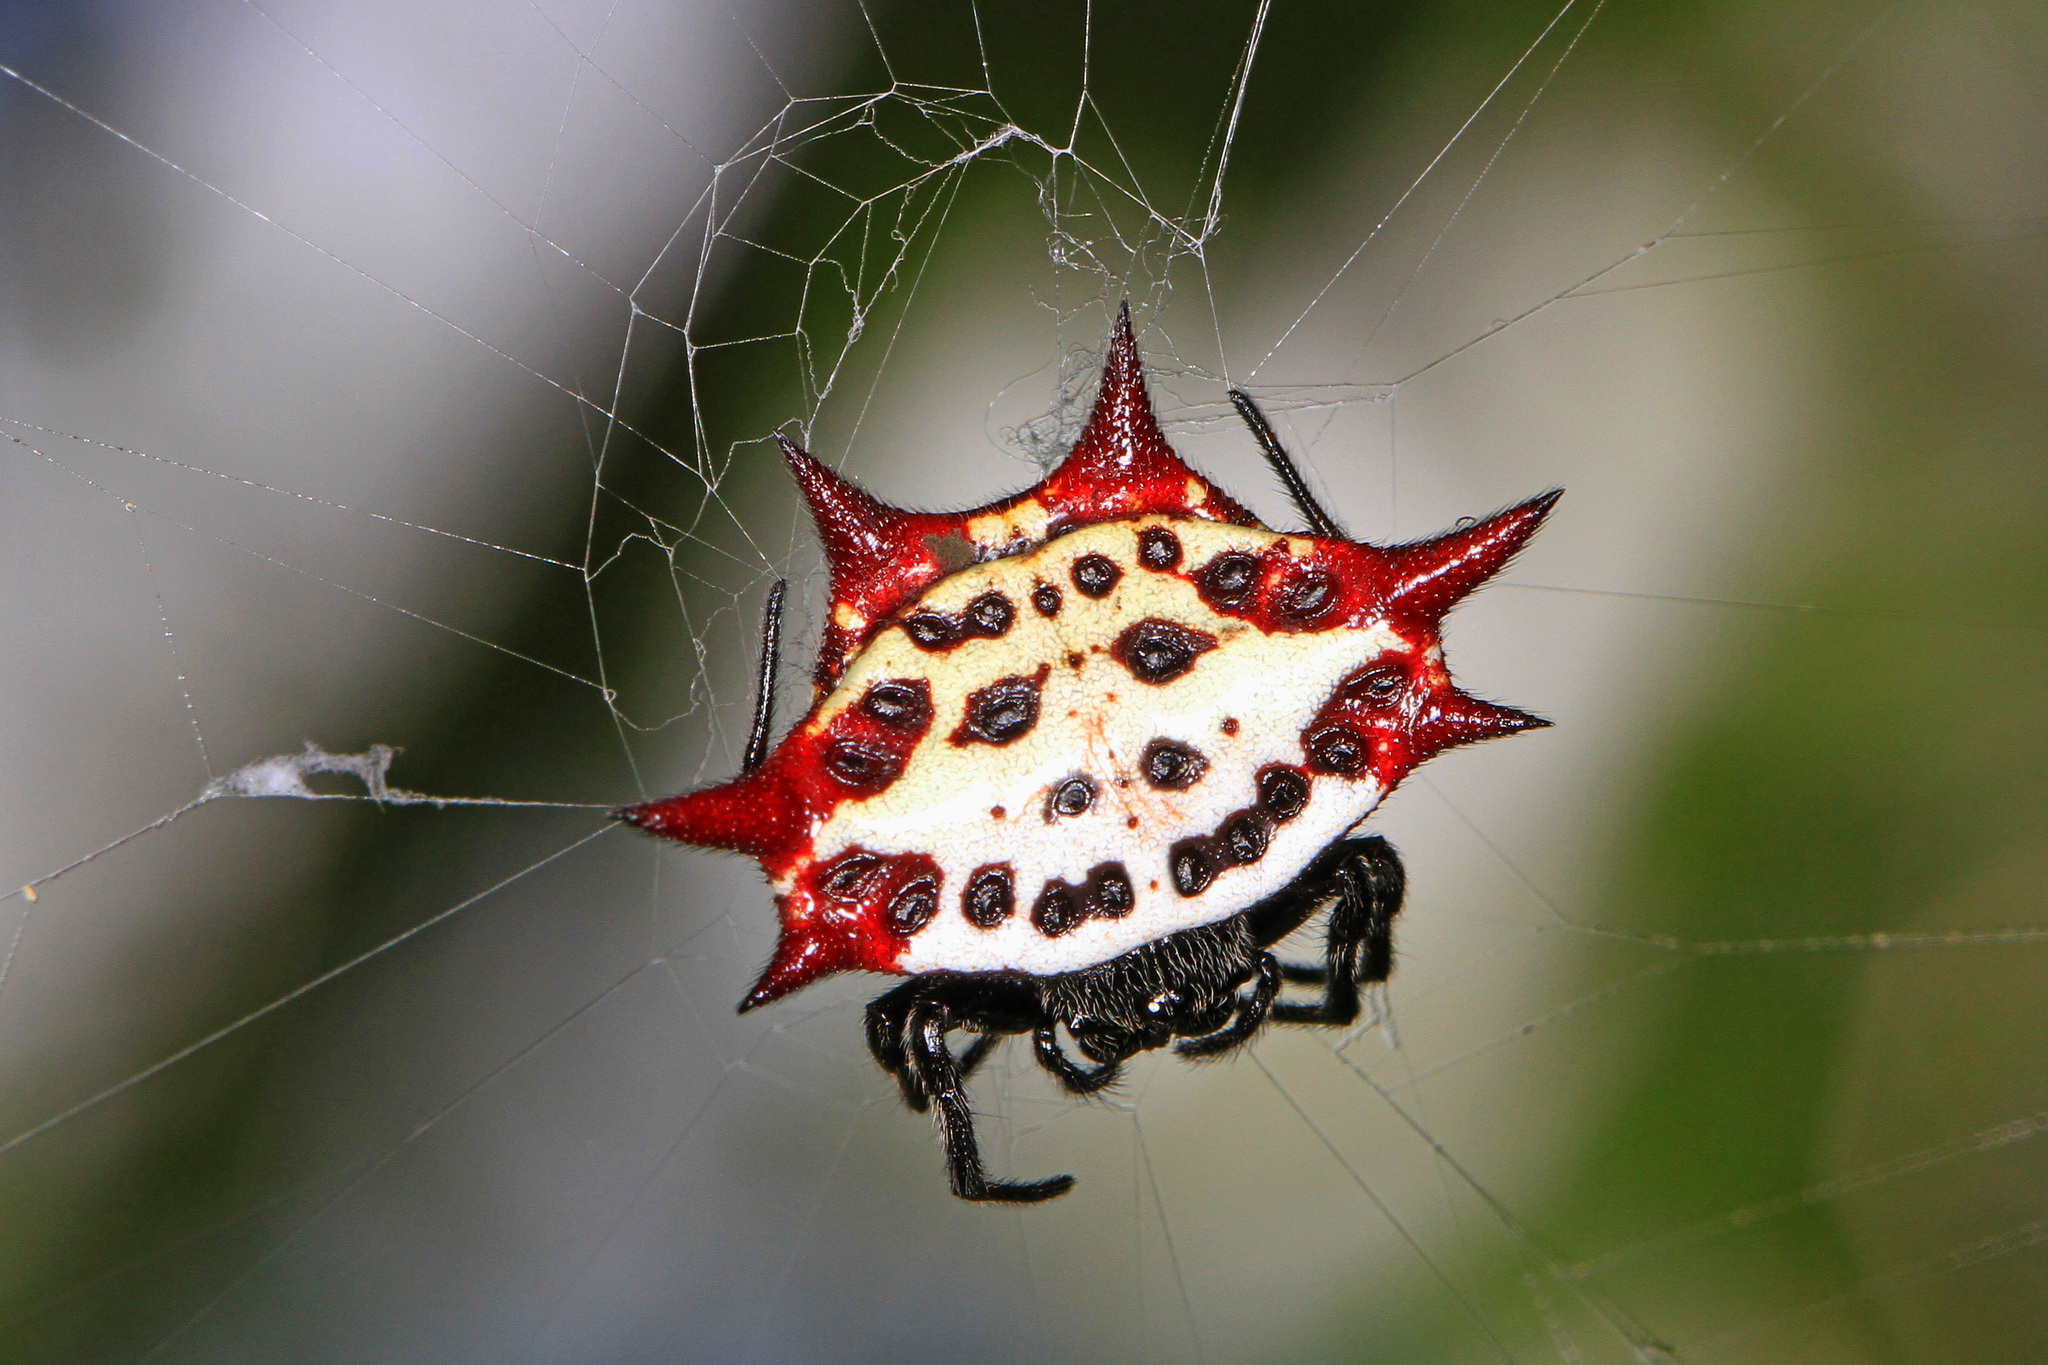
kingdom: Animalia
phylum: Arthropoda
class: Arachnida
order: Araneae
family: Araneidae
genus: Gasteracantha
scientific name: Gasteracantha cancriformis
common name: Orb weavers
